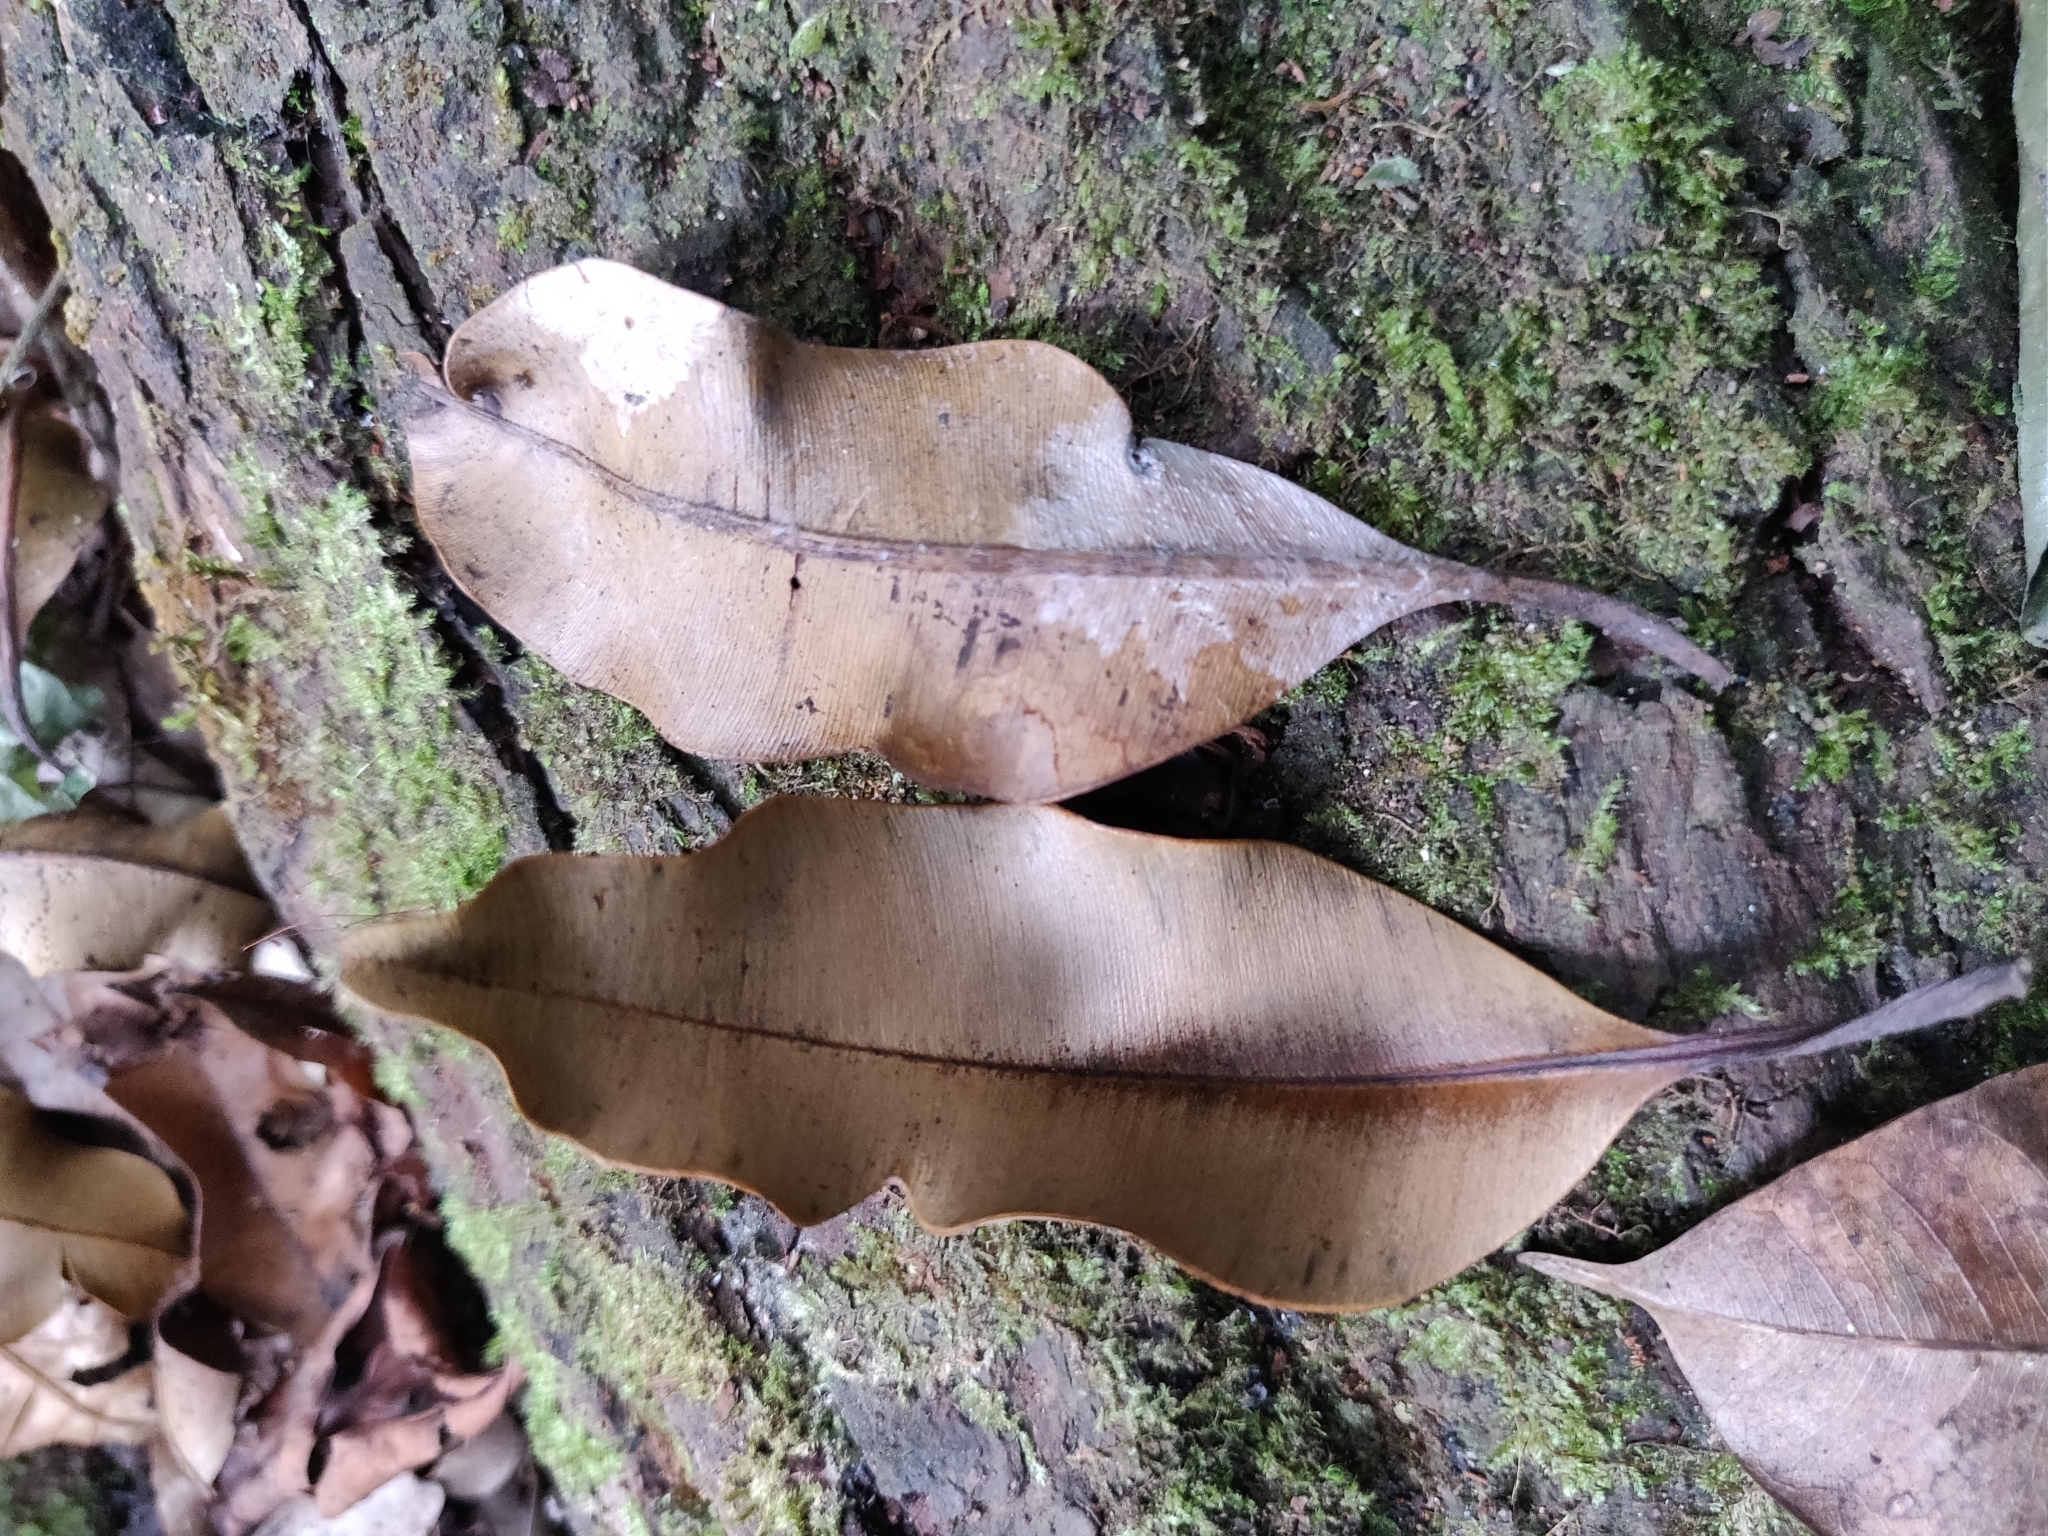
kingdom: Plantae
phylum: Tracheophyta
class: Magnoliopsida
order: Malpighiales
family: Calophyllaceae
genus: Calophyllum
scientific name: Calophyllum polyanthum
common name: Poonspar
